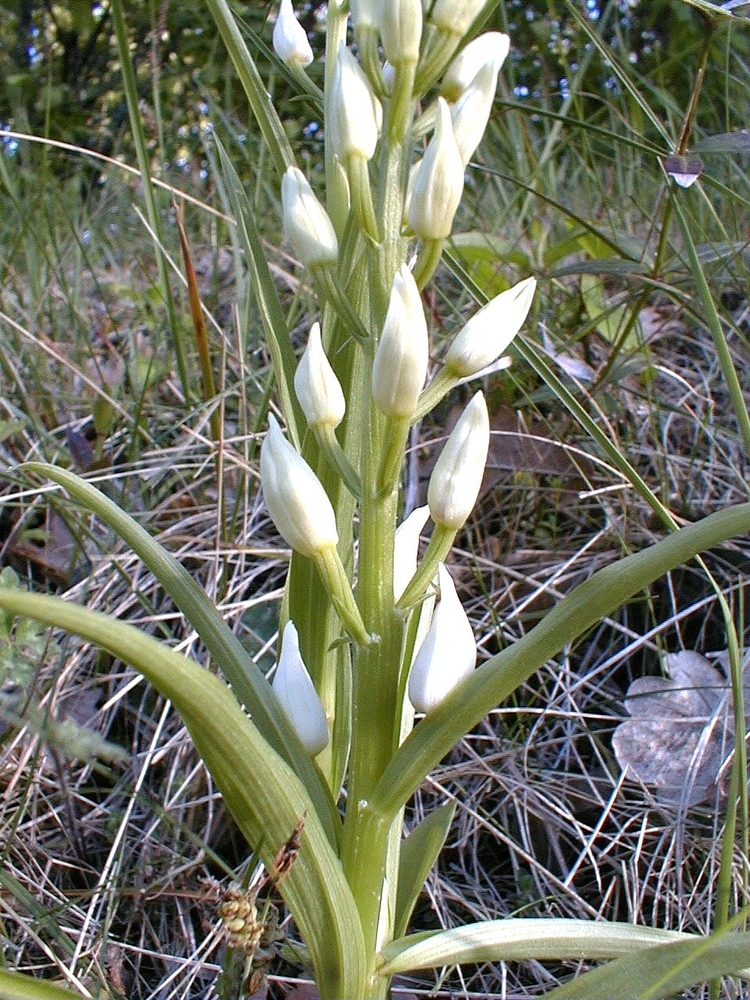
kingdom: Plantae
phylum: Tracheophyta
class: Liliopsida
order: Asparagales
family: Orchidaceae
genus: Cephalanthera
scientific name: Cephalanthera longifolia
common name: Narrow-leaved helleborine
